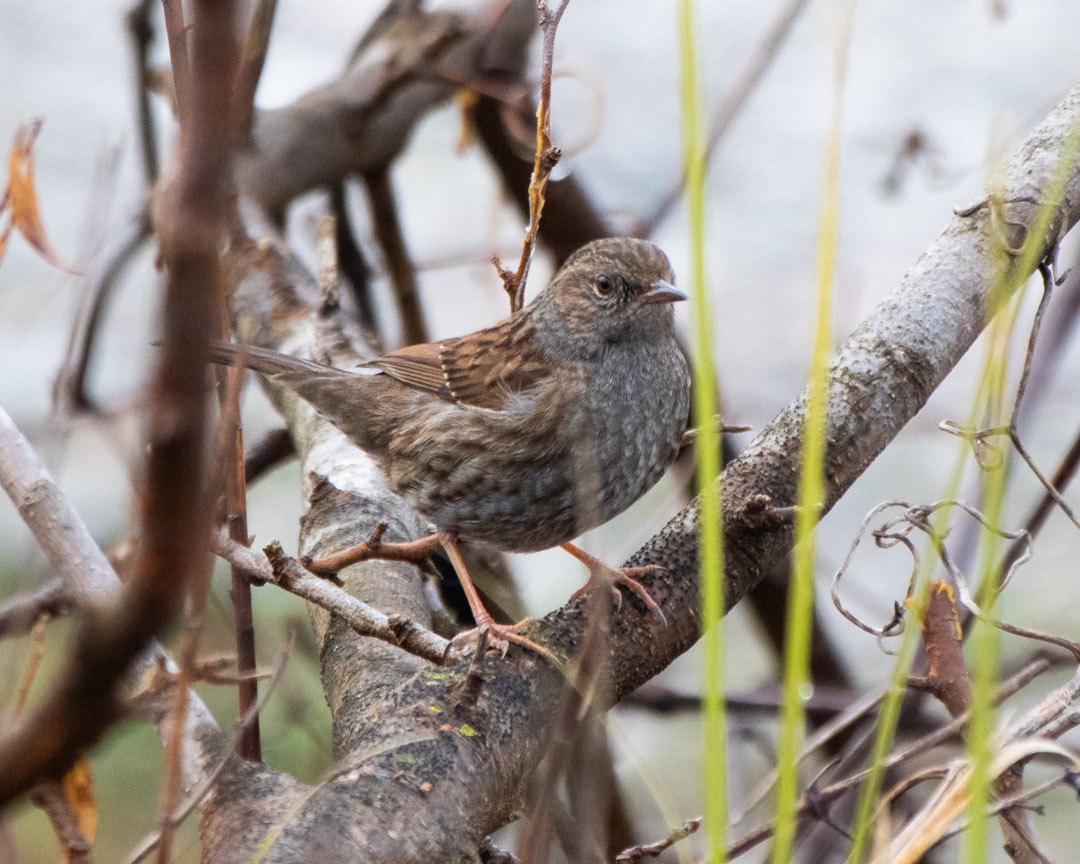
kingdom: Animalia
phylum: Chordata
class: Aves
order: Passeriformes
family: Prunellidae
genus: Prunella
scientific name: Prunella modularis
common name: Dunnock
